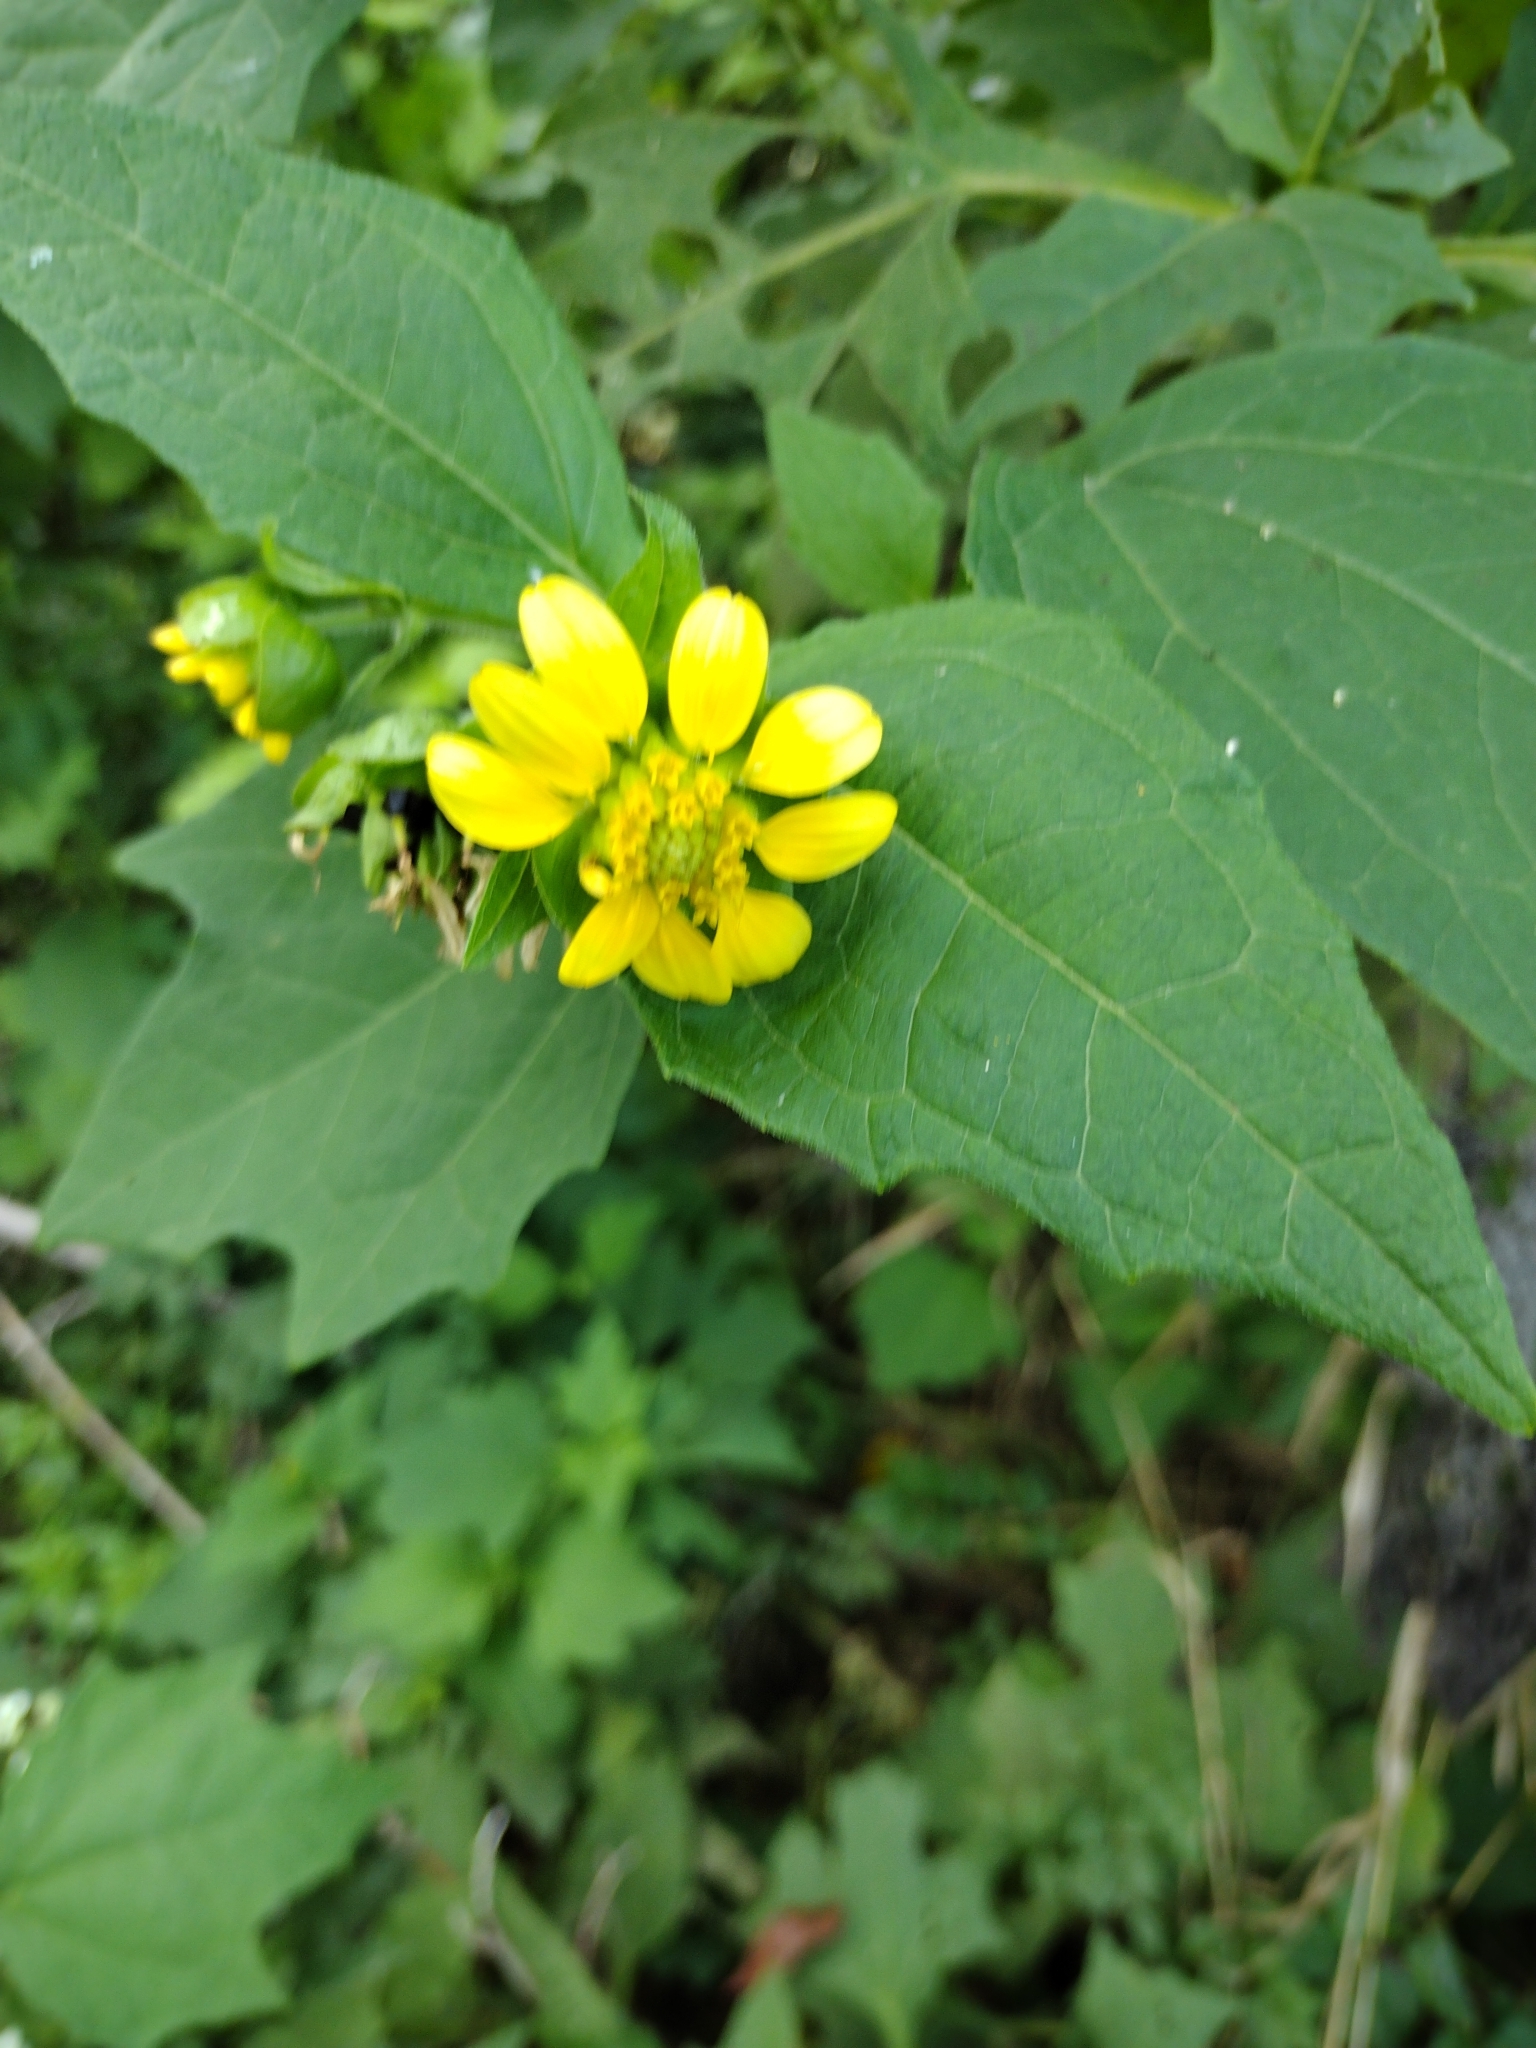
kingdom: Plantae
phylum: Tracheophyta
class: Magnoliopsida
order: Asterales
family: Asteraceae
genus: Smallanthus
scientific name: Smallanthus uvedalia
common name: Bear's-foot
